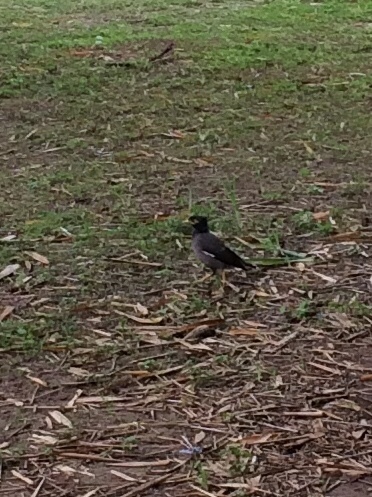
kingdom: Animalia
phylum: Chordata
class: Aves
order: Passeriformes
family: Sturnidae
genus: Acridotheres
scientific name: Acridotheres tristis
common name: Common myna
